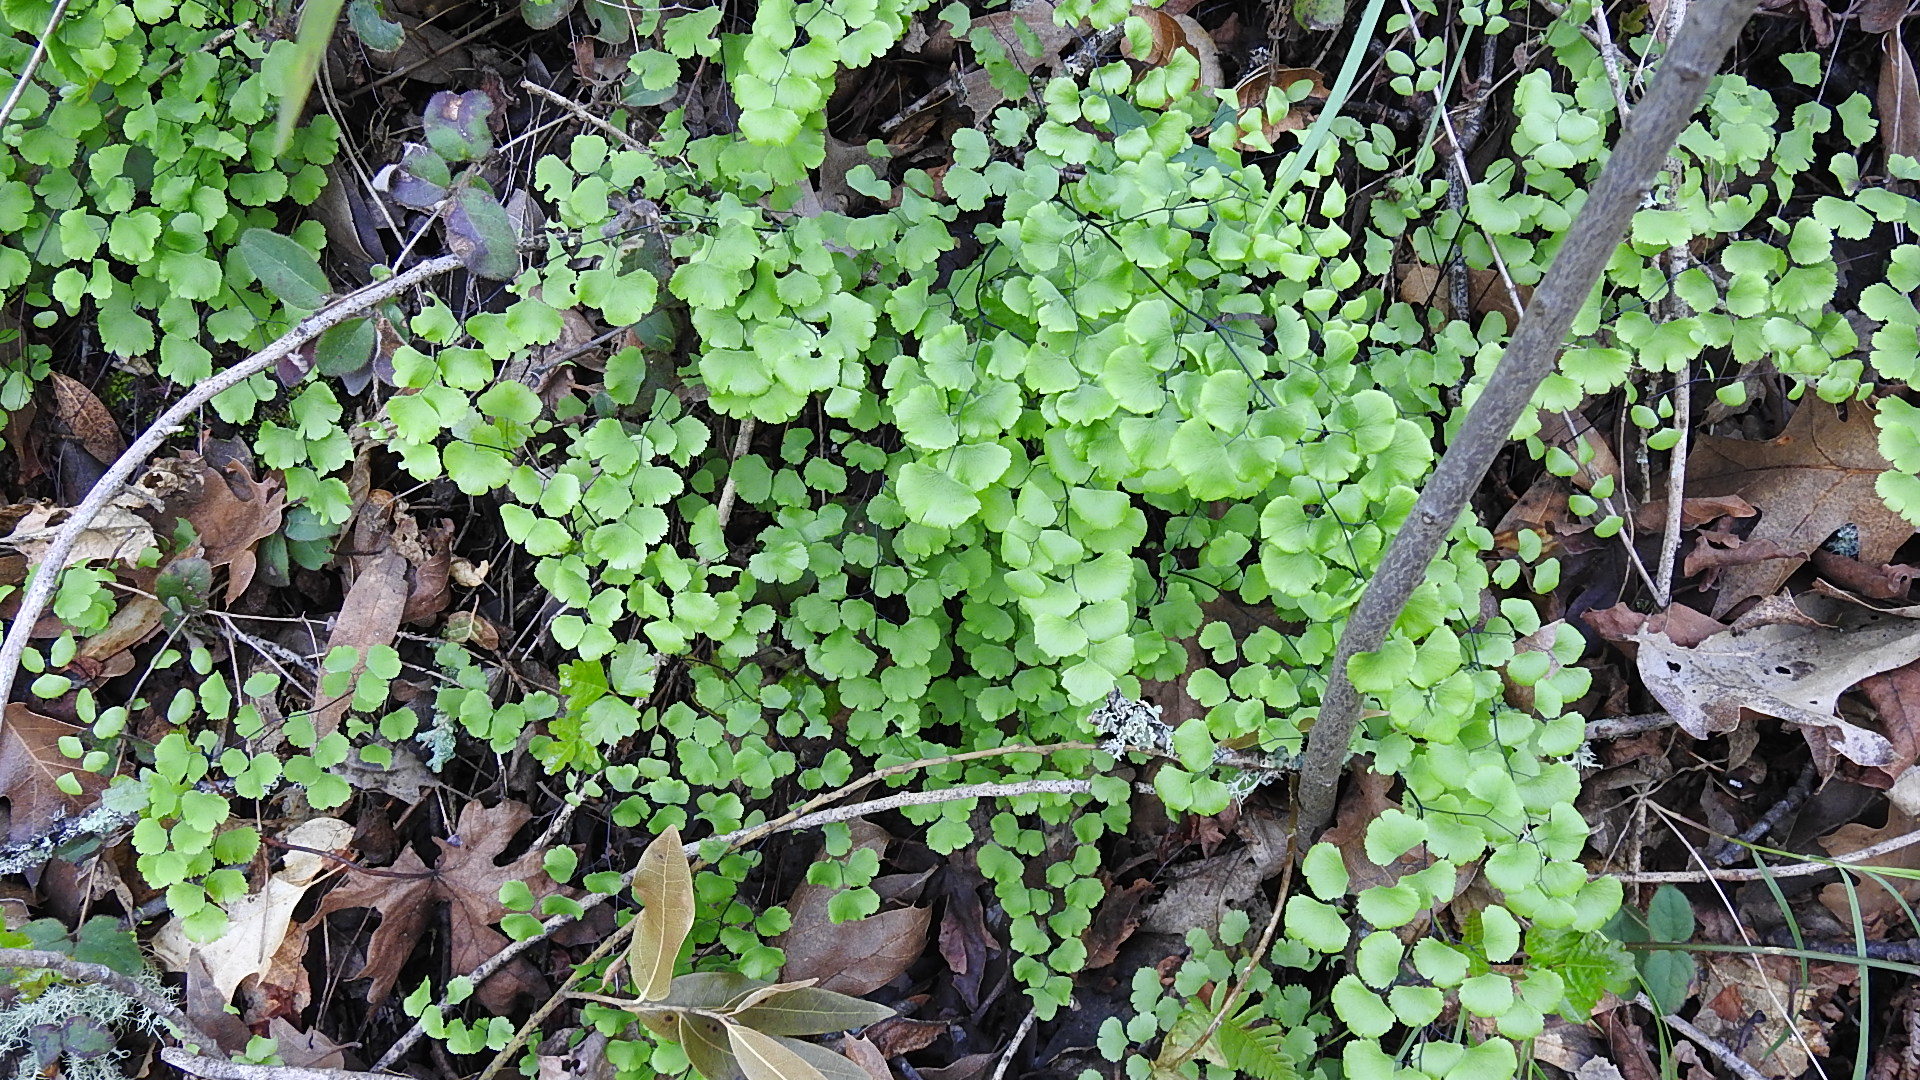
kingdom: Plantae
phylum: Tracheophyta
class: Polypodiopsida
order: Polypodiales
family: Pteridaceae
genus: Adiantum
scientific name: Adiantum jordanii
